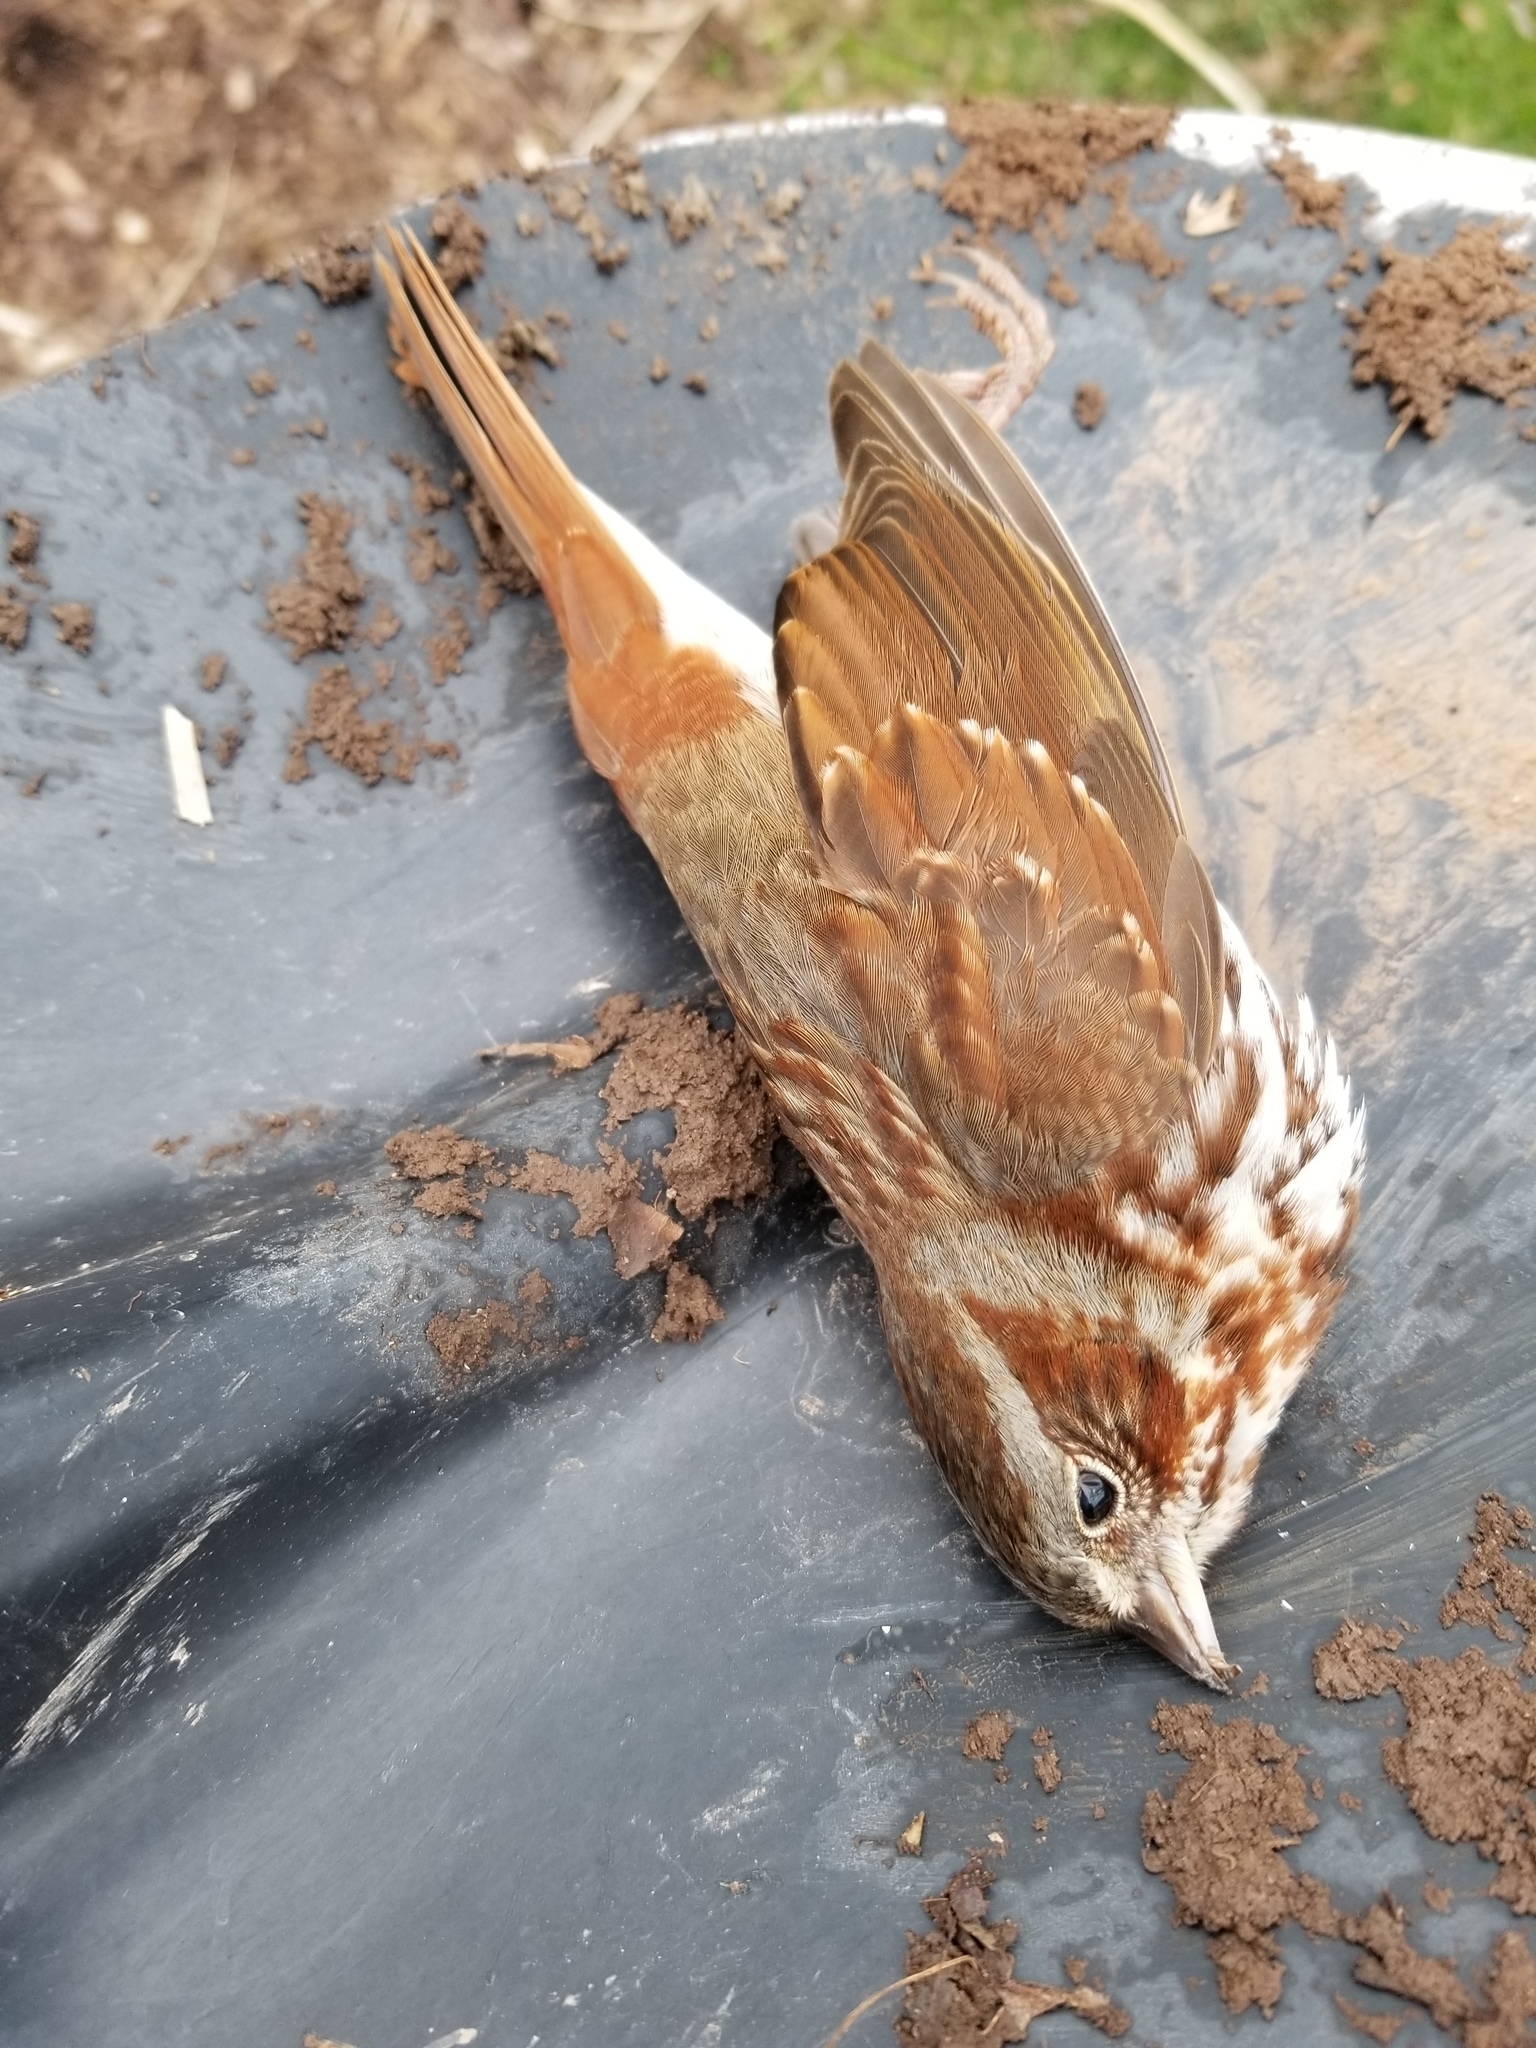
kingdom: Animalia
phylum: Chordata
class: Aves
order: Passeriformes
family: Passerellidae
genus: Passerella
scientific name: Passerella iliaca
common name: Fox sparrow
